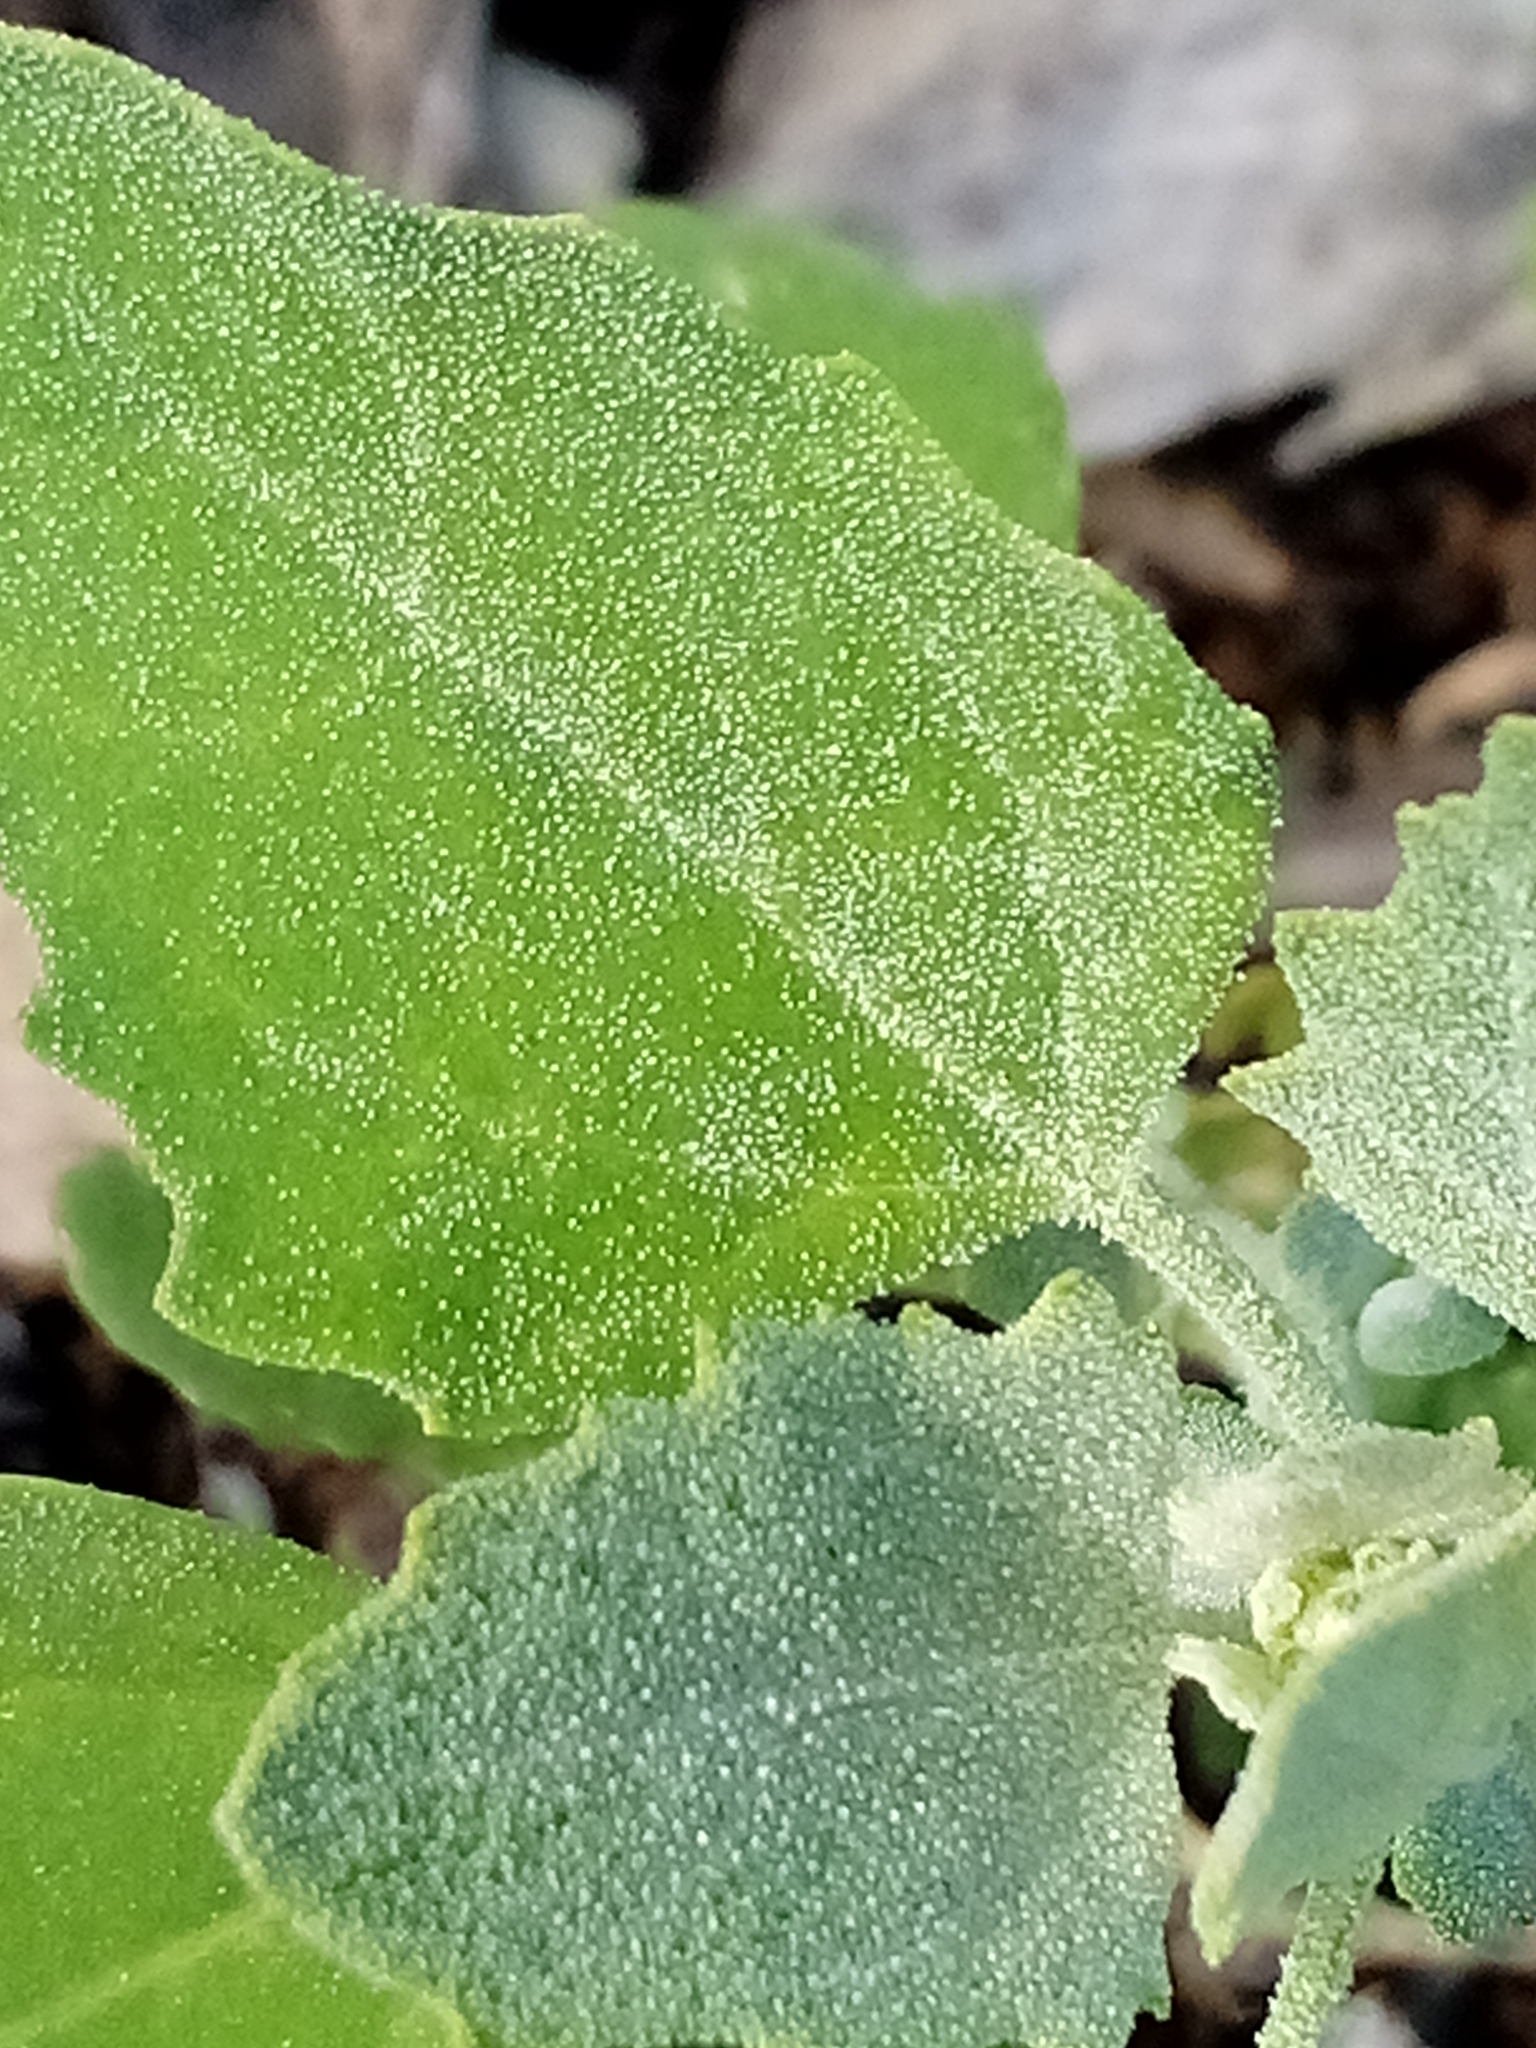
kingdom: Plantae
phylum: Tracheophyta
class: Magnoliopsida
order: Caryophyllales
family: Amaranthaceae
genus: Chenopodium
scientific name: Chenopodium album
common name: Fat-hen
